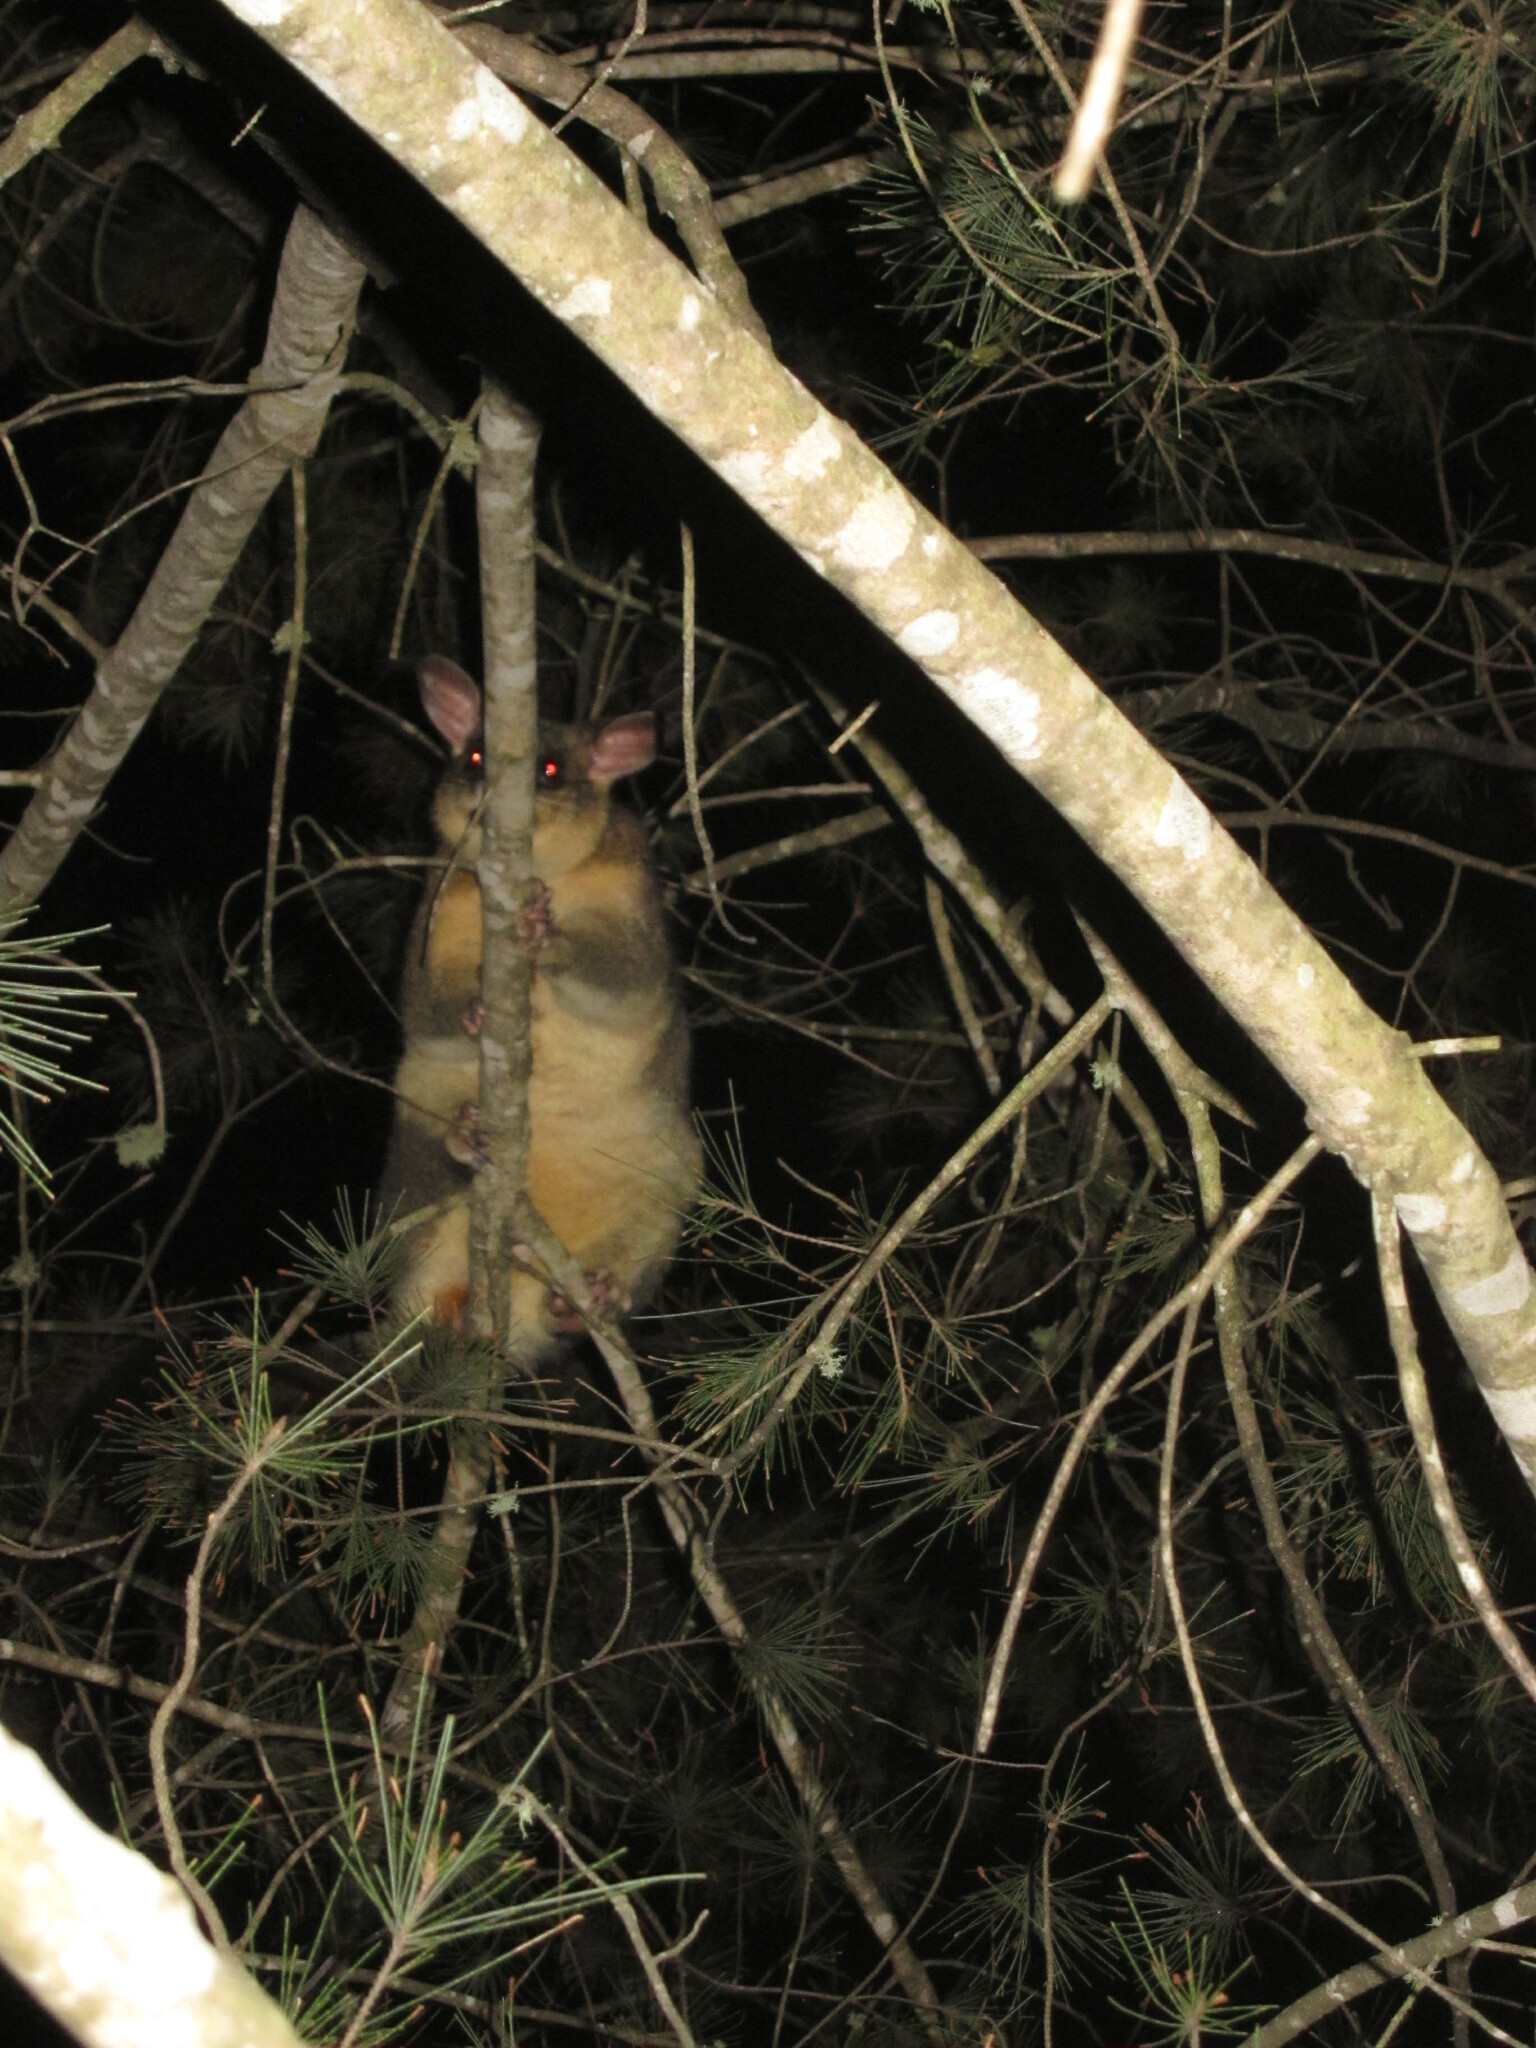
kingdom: Animalia
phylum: Chordata
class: Mammalia
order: Diprotodontia
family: Phalangeridae
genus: Trichosurus
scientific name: Trichosurus vulpecula
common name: Common brushtail
